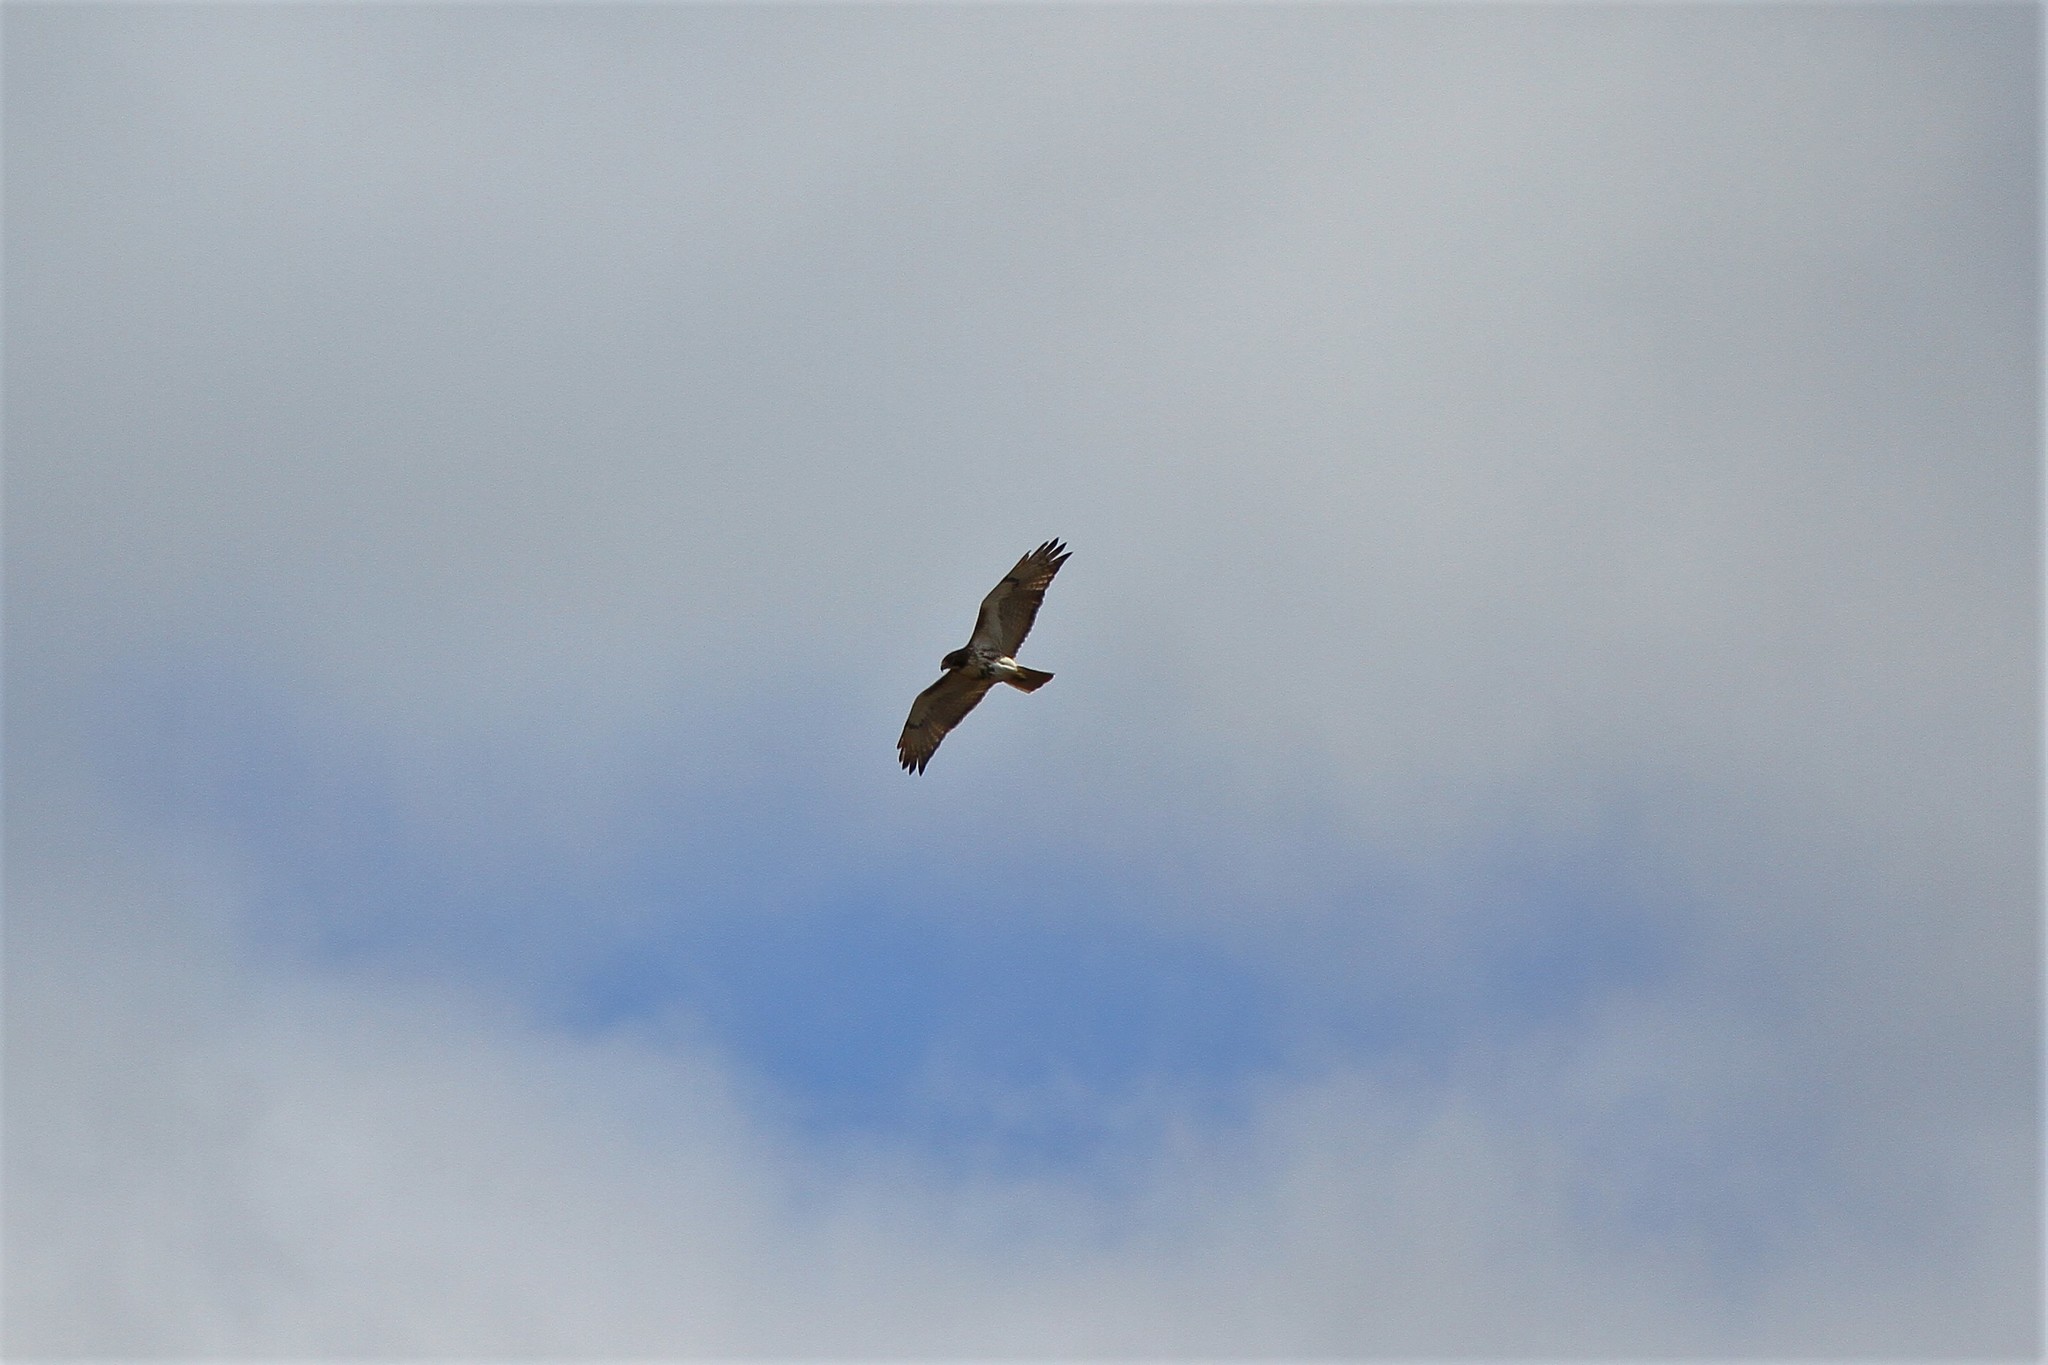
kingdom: Animalia
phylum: Chordata
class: Aves
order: Accipitriformes
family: Accipitridae
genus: Buteo
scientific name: Buteo jamaicensis
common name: Red-tailed hawk
